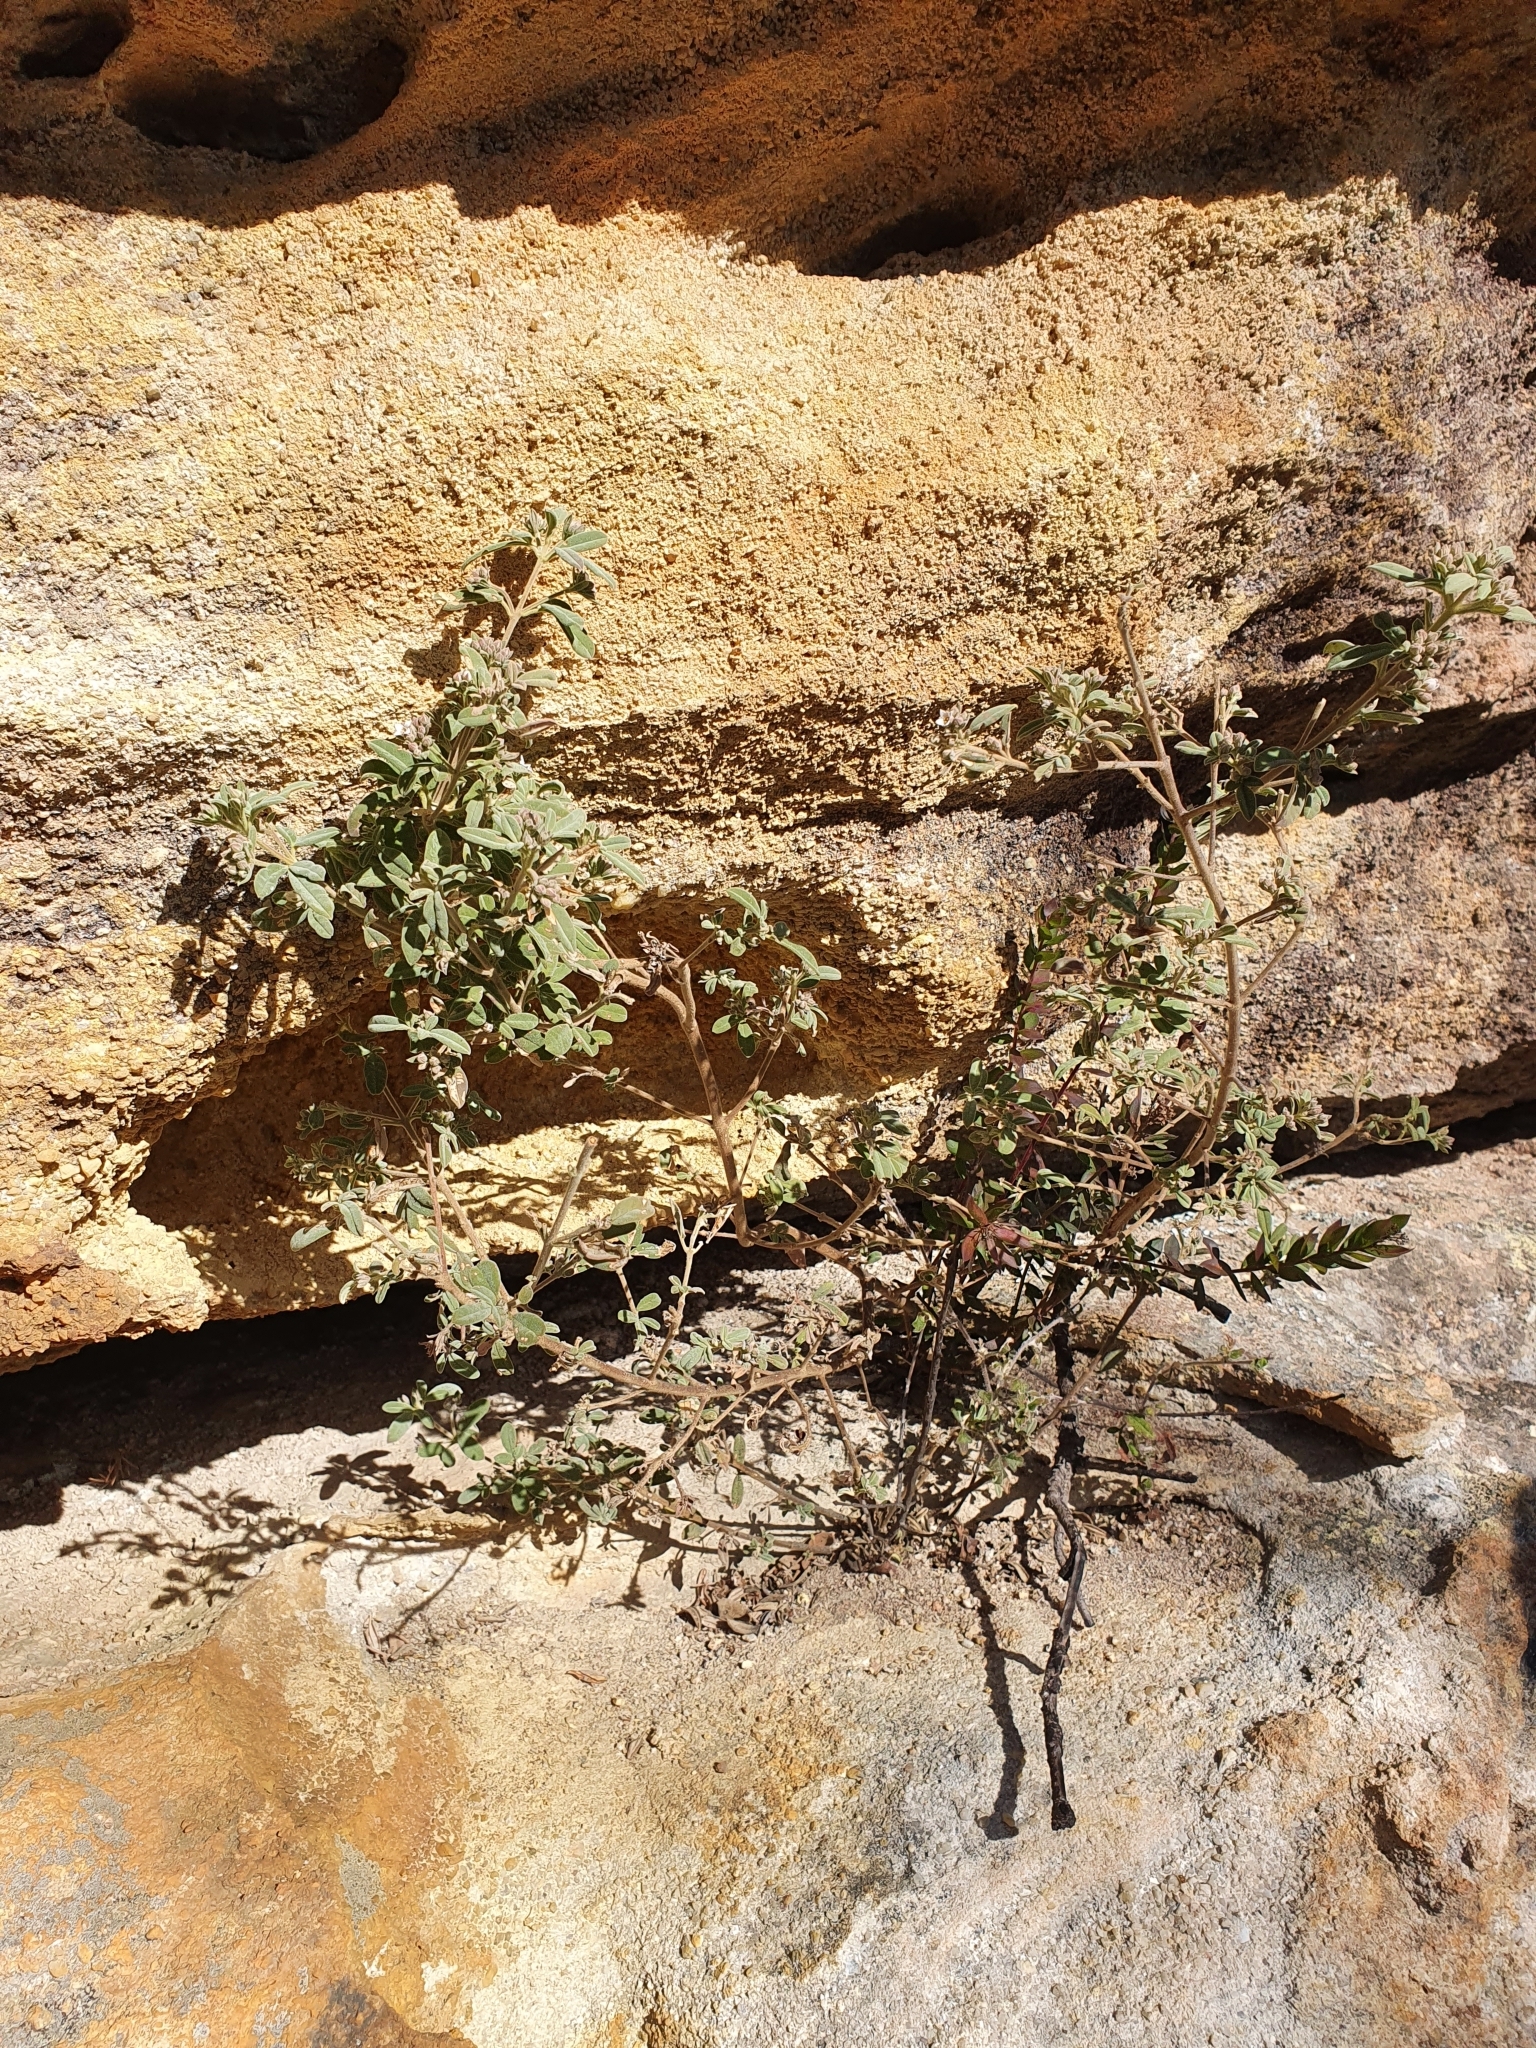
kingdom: Plantae
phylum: Tracheophyta
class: Magnoliopsida
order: Sapindales
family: Rutaceae
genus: Zieria
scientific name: Zieria cytisoides
